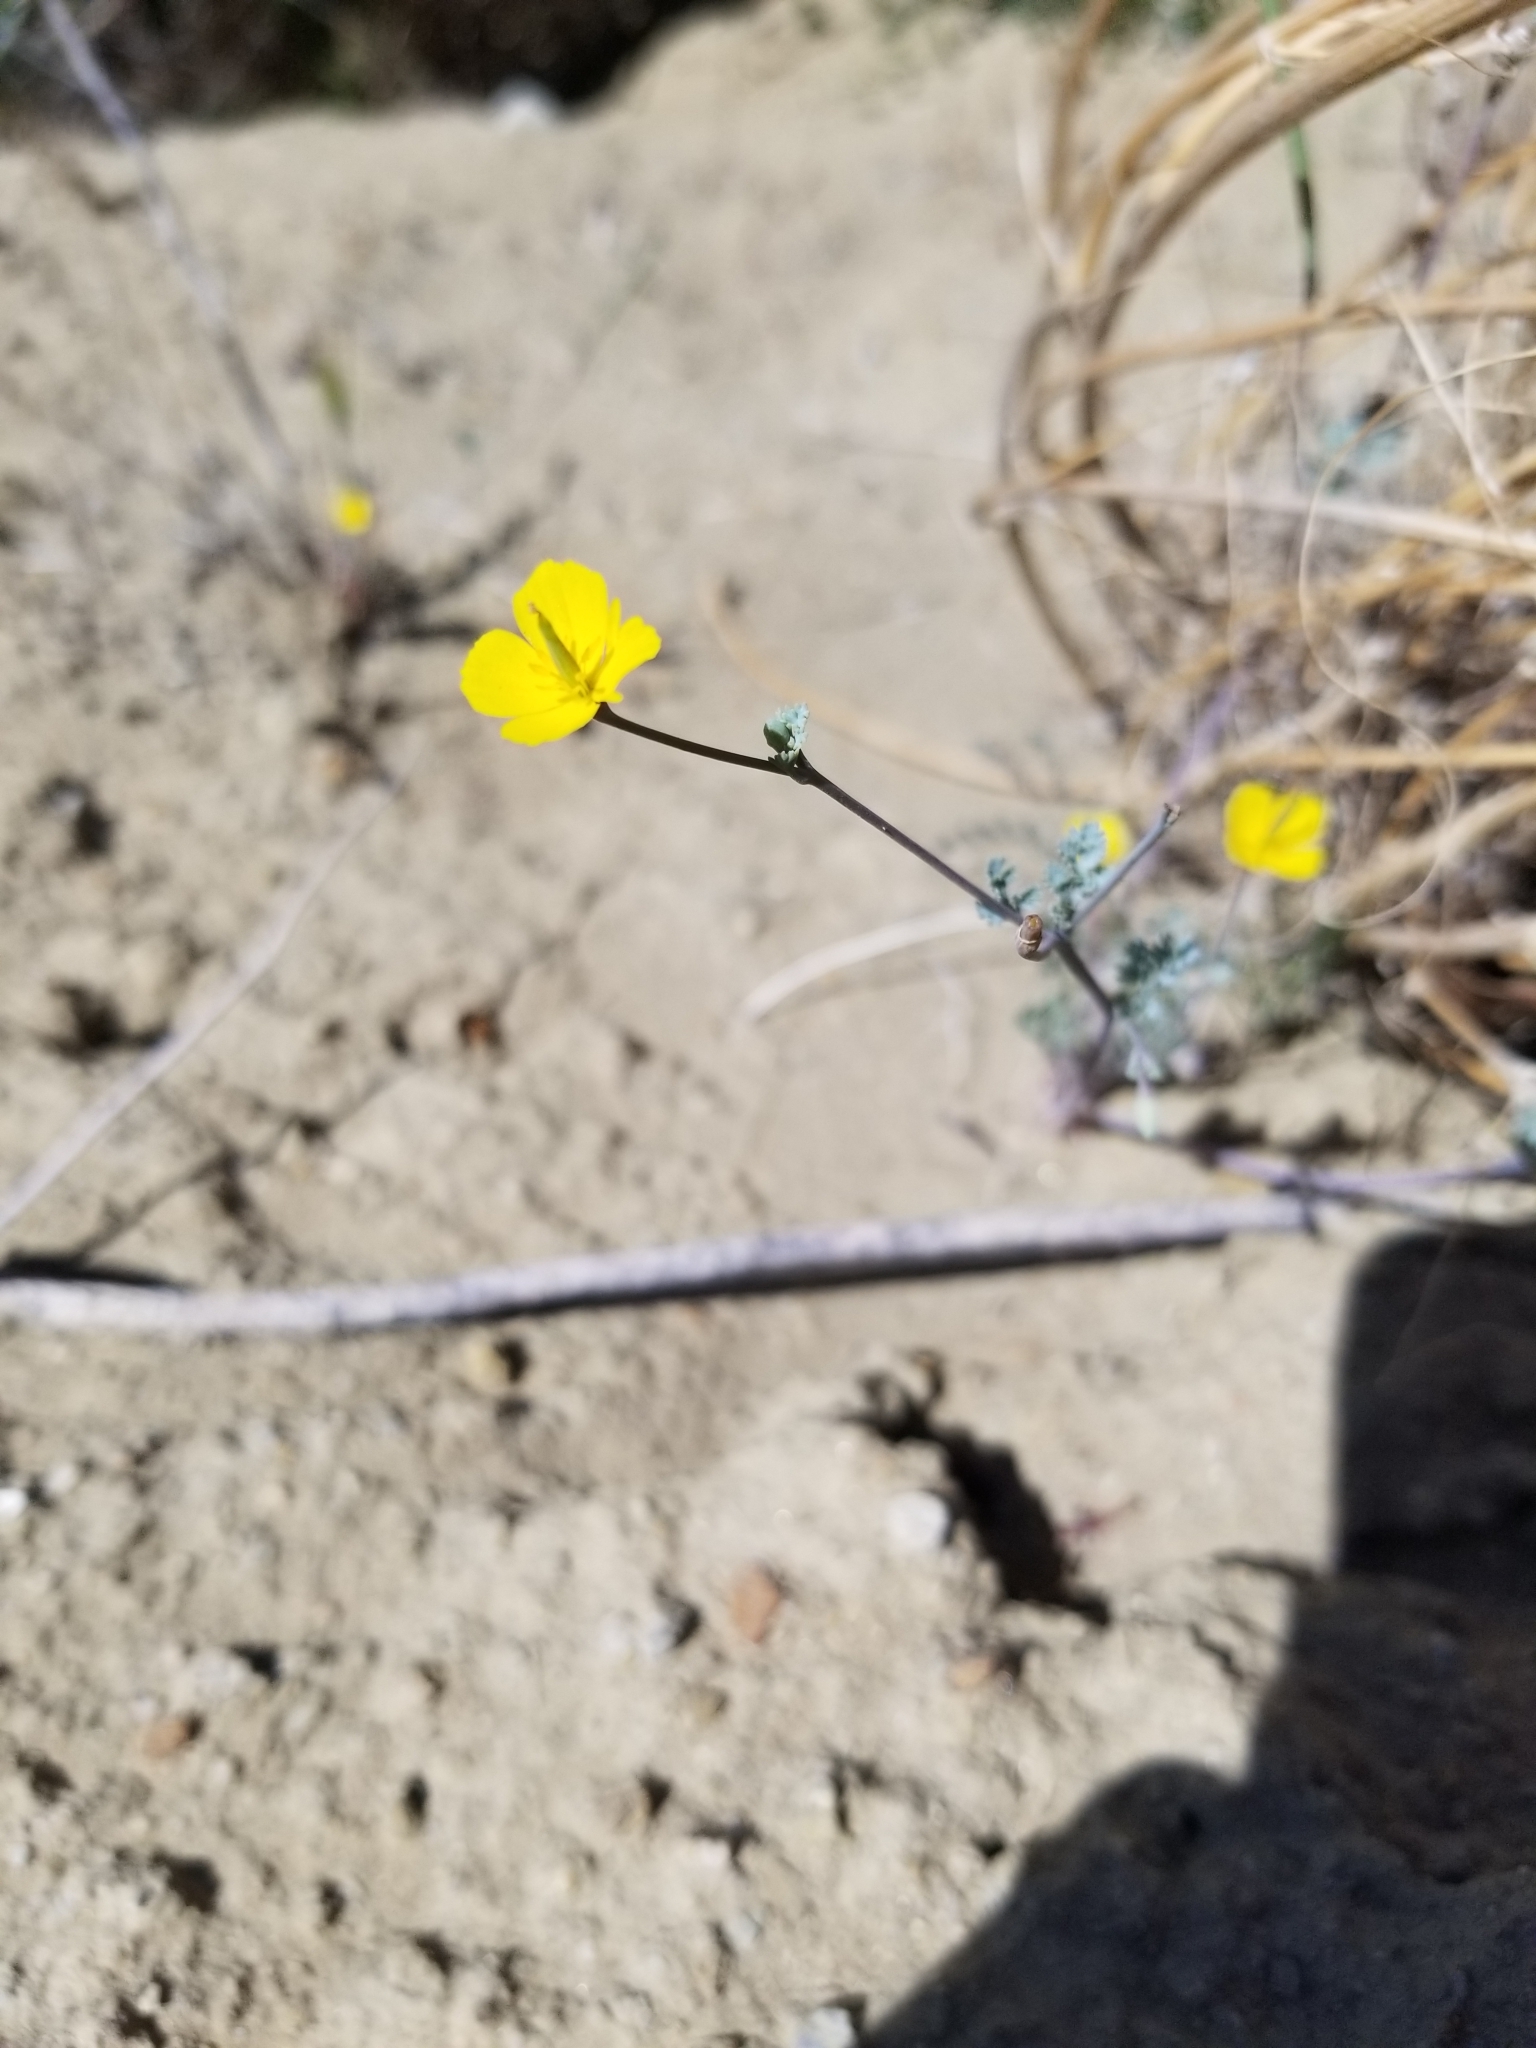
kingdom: Plantae
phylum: Tracheophyta
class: Magnoliopsida
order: Ranunculales
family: Papaveraceae
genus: Eschscholzia
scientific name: Eschscholzia minutiflora
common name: Small-flower california-poppy
